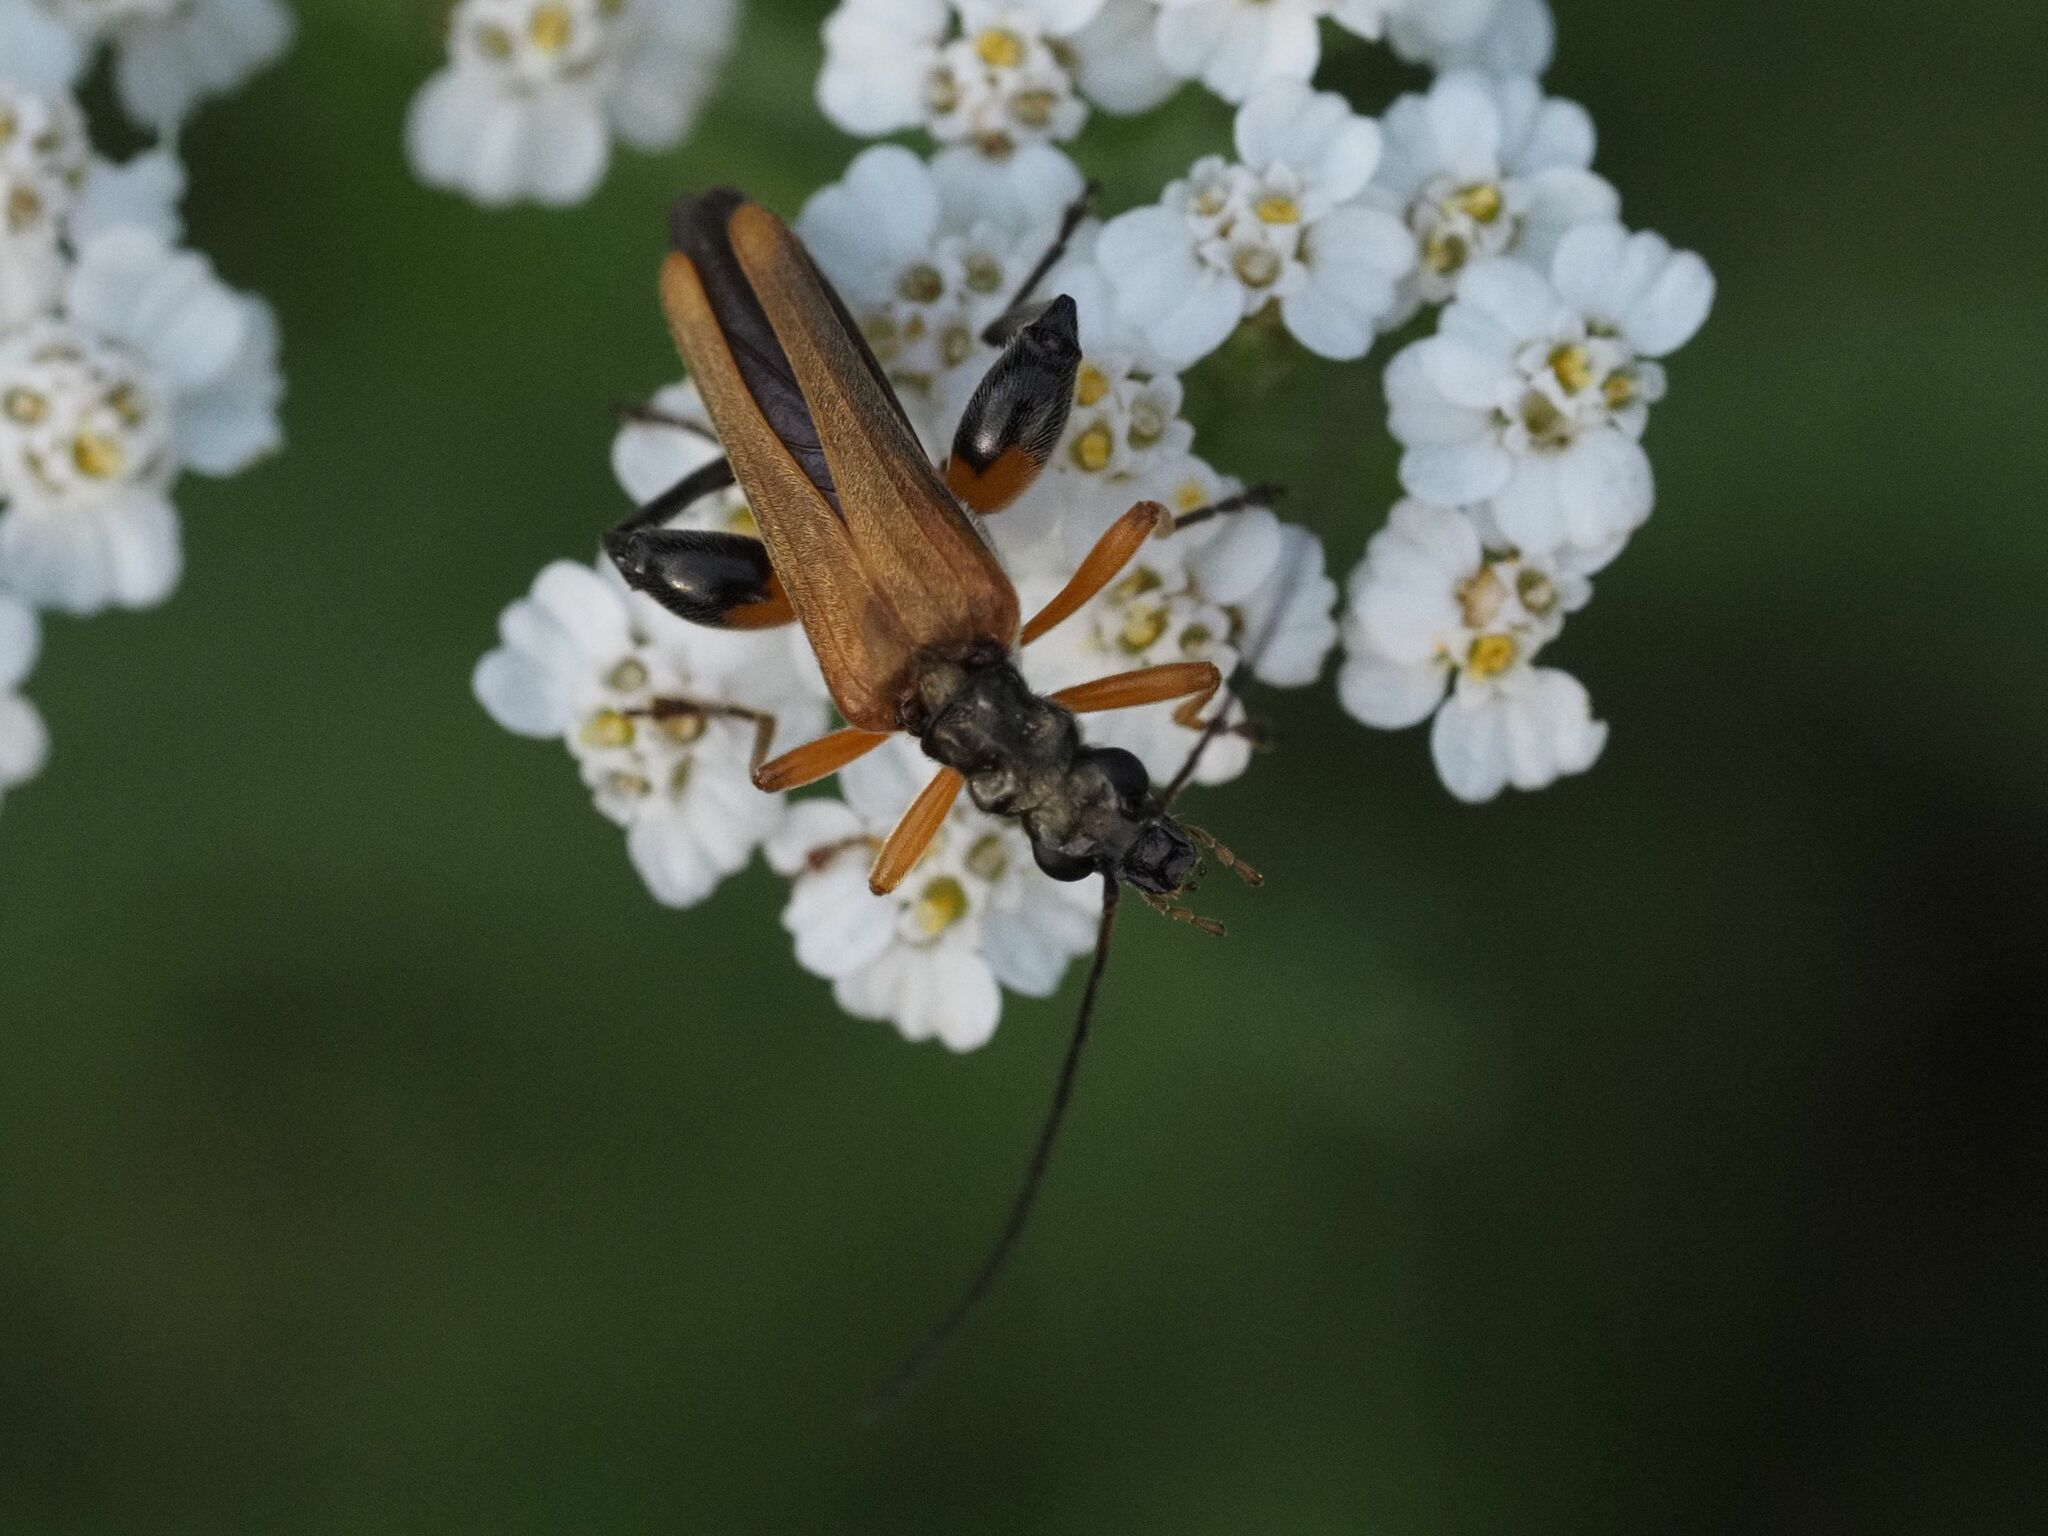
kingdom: Animalia
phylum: Arthropoda
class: Insecta
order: Coleoptera
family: Oedemeridae
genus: Oedemera
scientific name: Oedemera podagrariae
